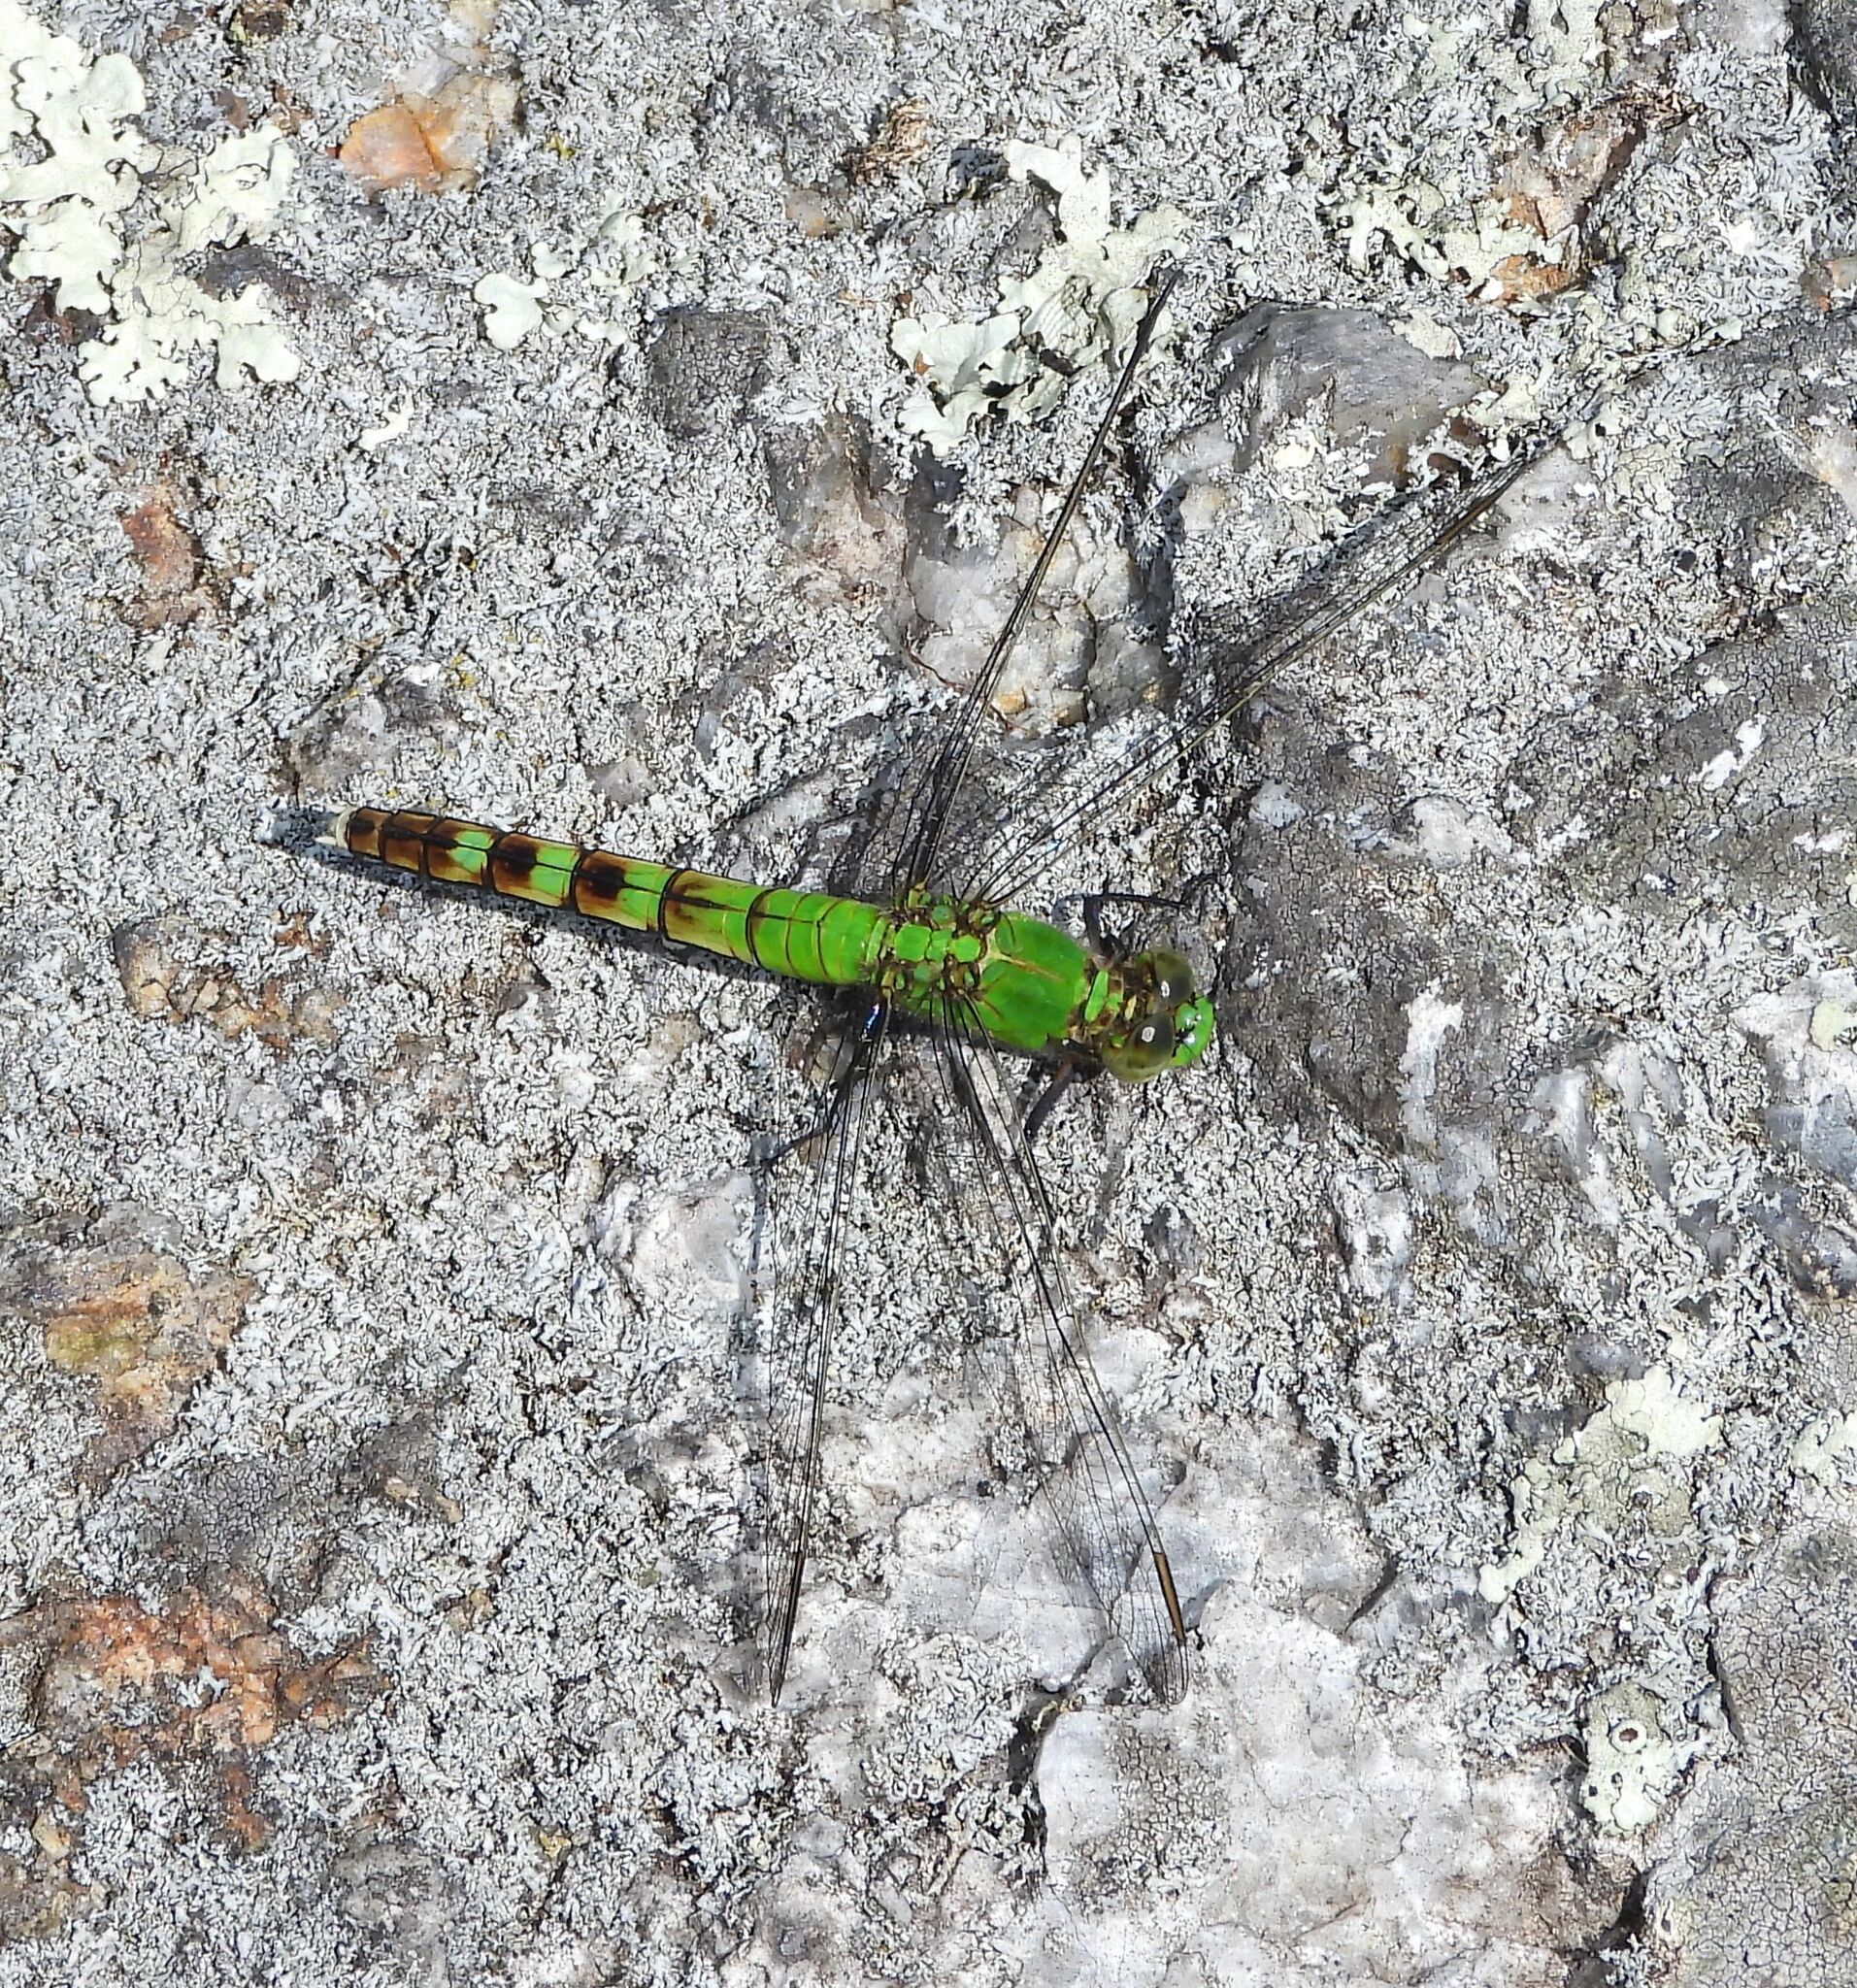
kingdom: Animalia
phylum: Arthropoda
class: Insecta
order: Odonata
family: Libellulidae
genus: Erythemis
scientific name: Erythemis simplicicollis
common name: Eastern pondhawk
